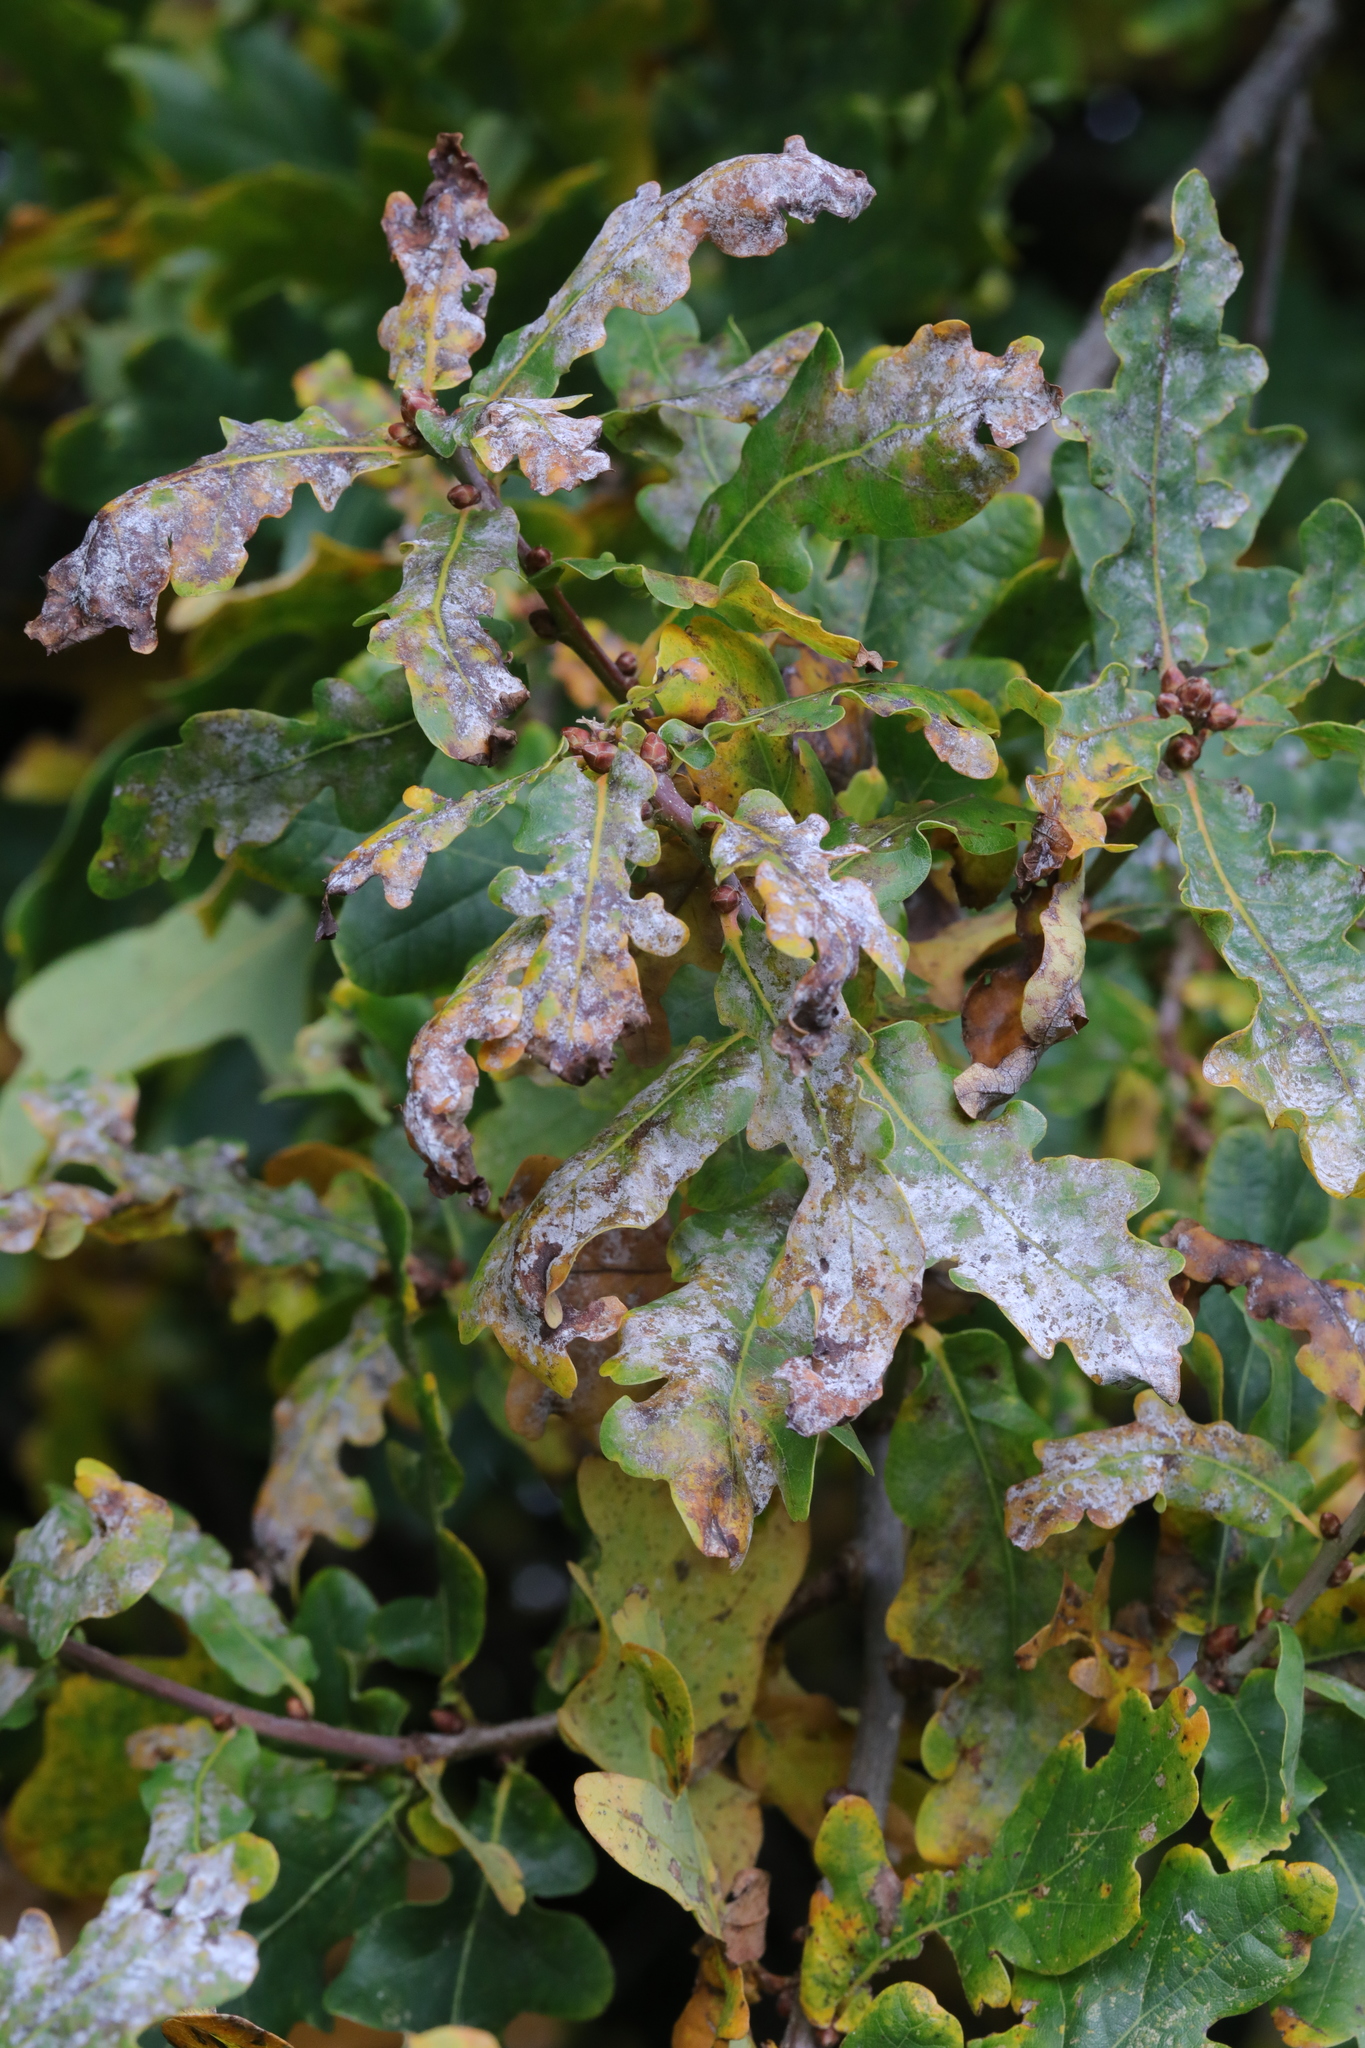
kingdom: Fungi
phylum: Ascomycota
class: Leotiomycetes
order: Helotiales
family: Erysiphaceae
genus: Erysiphe
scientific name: Erysiphe alphitoides
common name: Oak mildew
